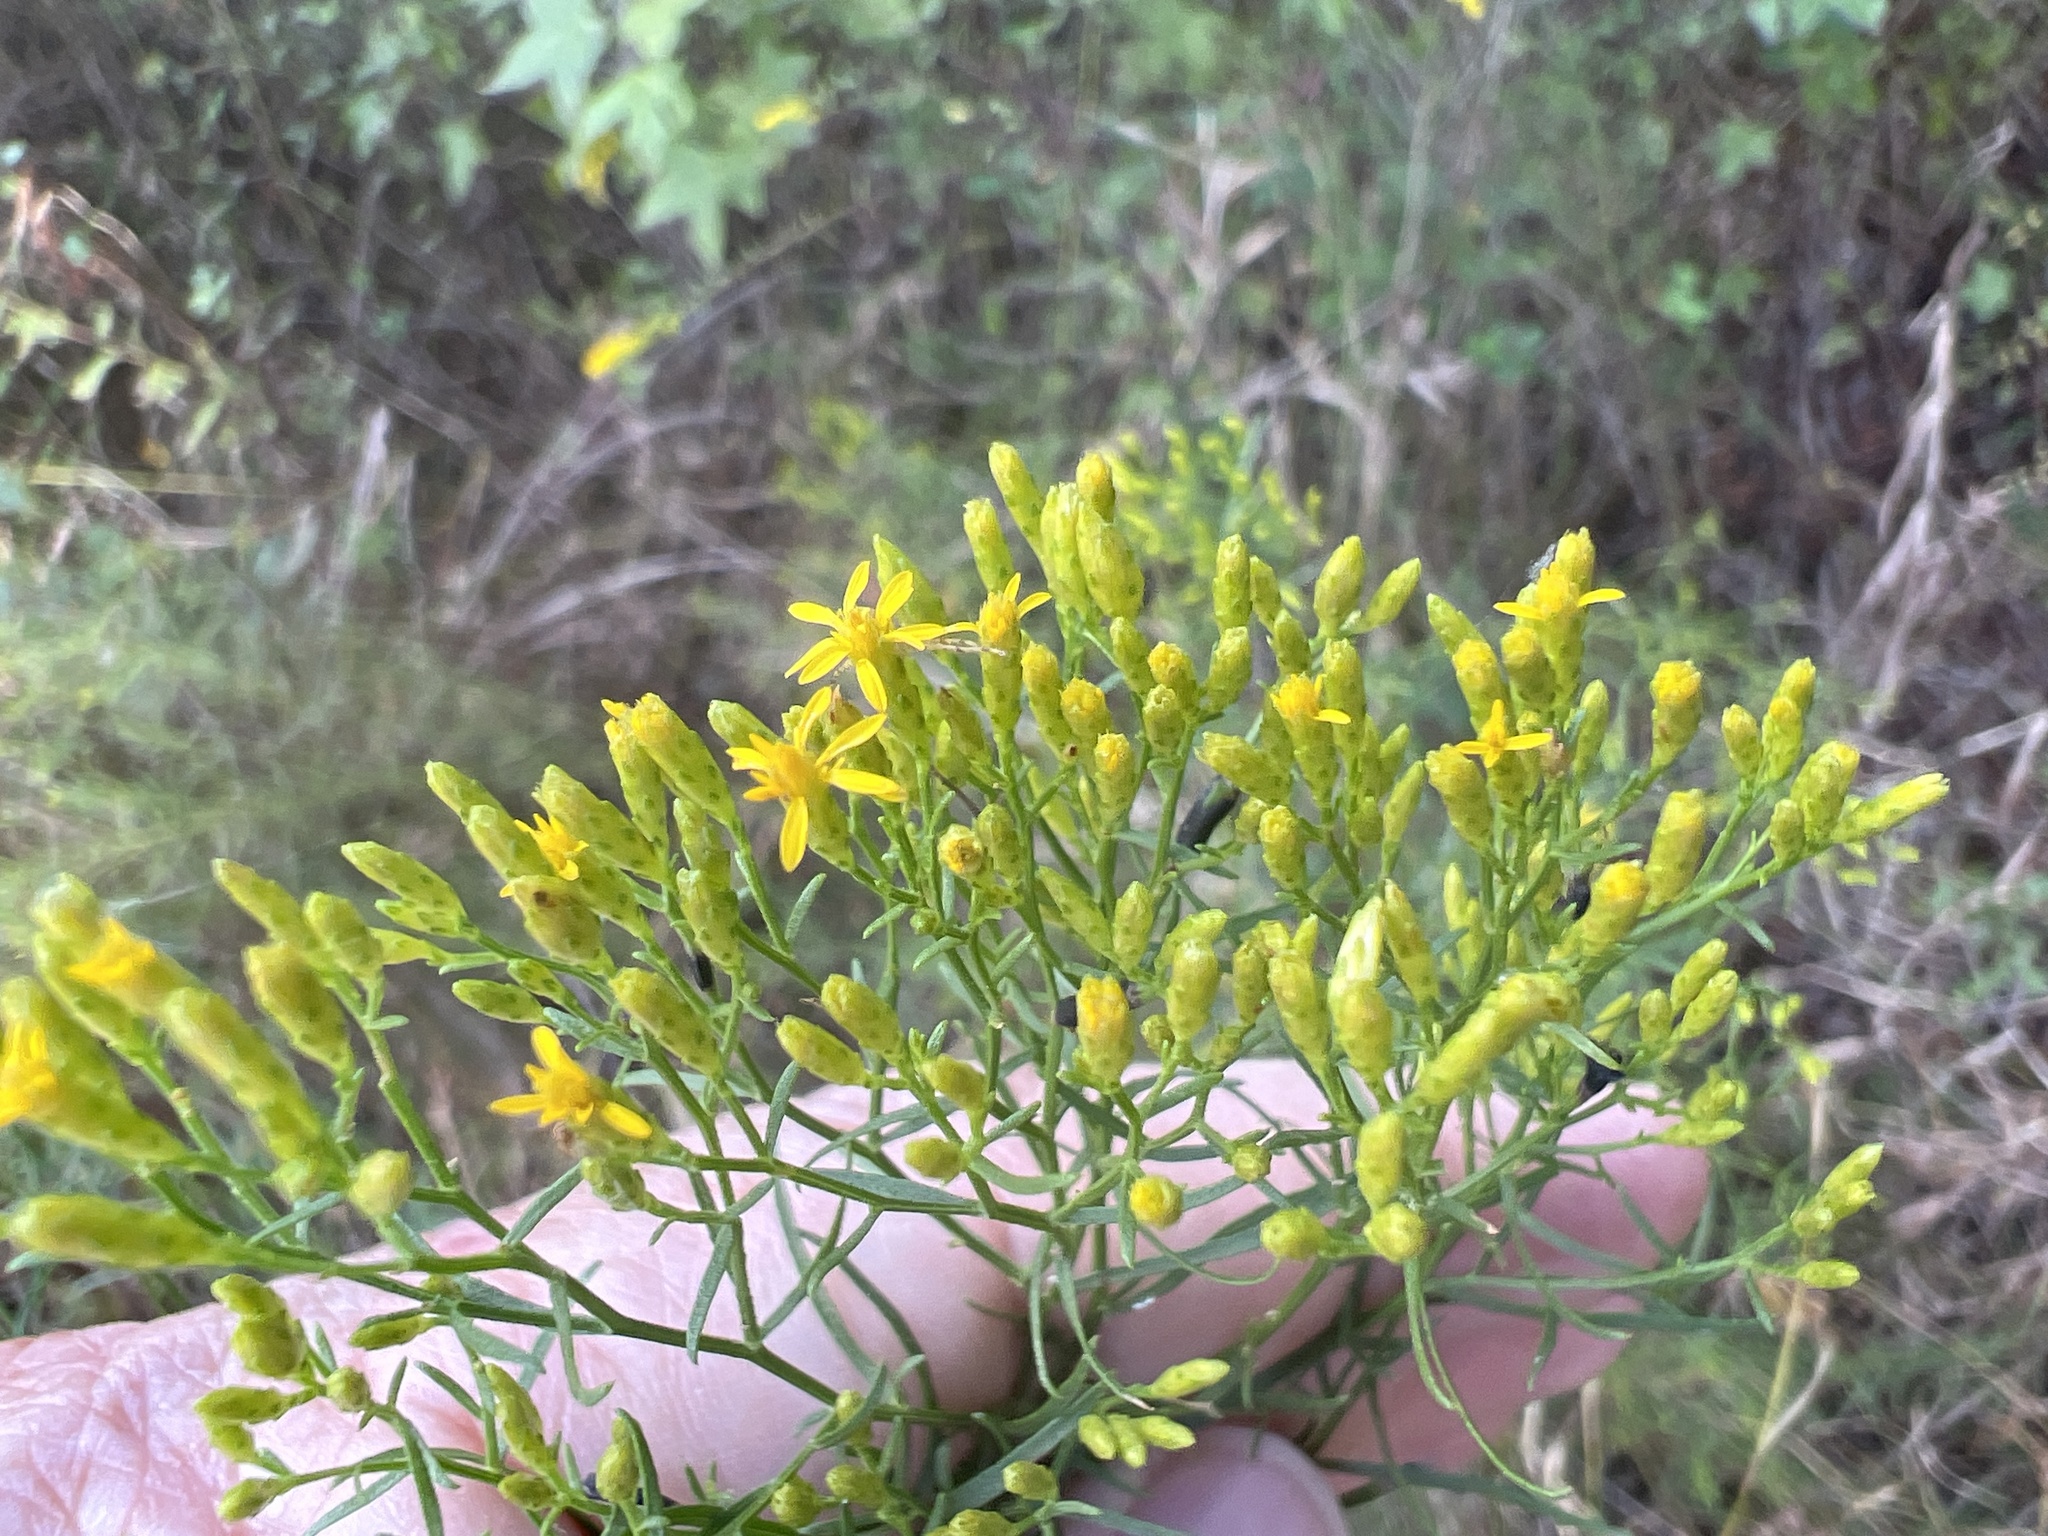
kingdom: Plantae
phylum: Tracheophyta
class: Magnoliopsida
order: Asterales
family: Asteraceae
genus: Euthamia
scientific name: Euthamia caroliniana
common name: Coastal plain goldentop
